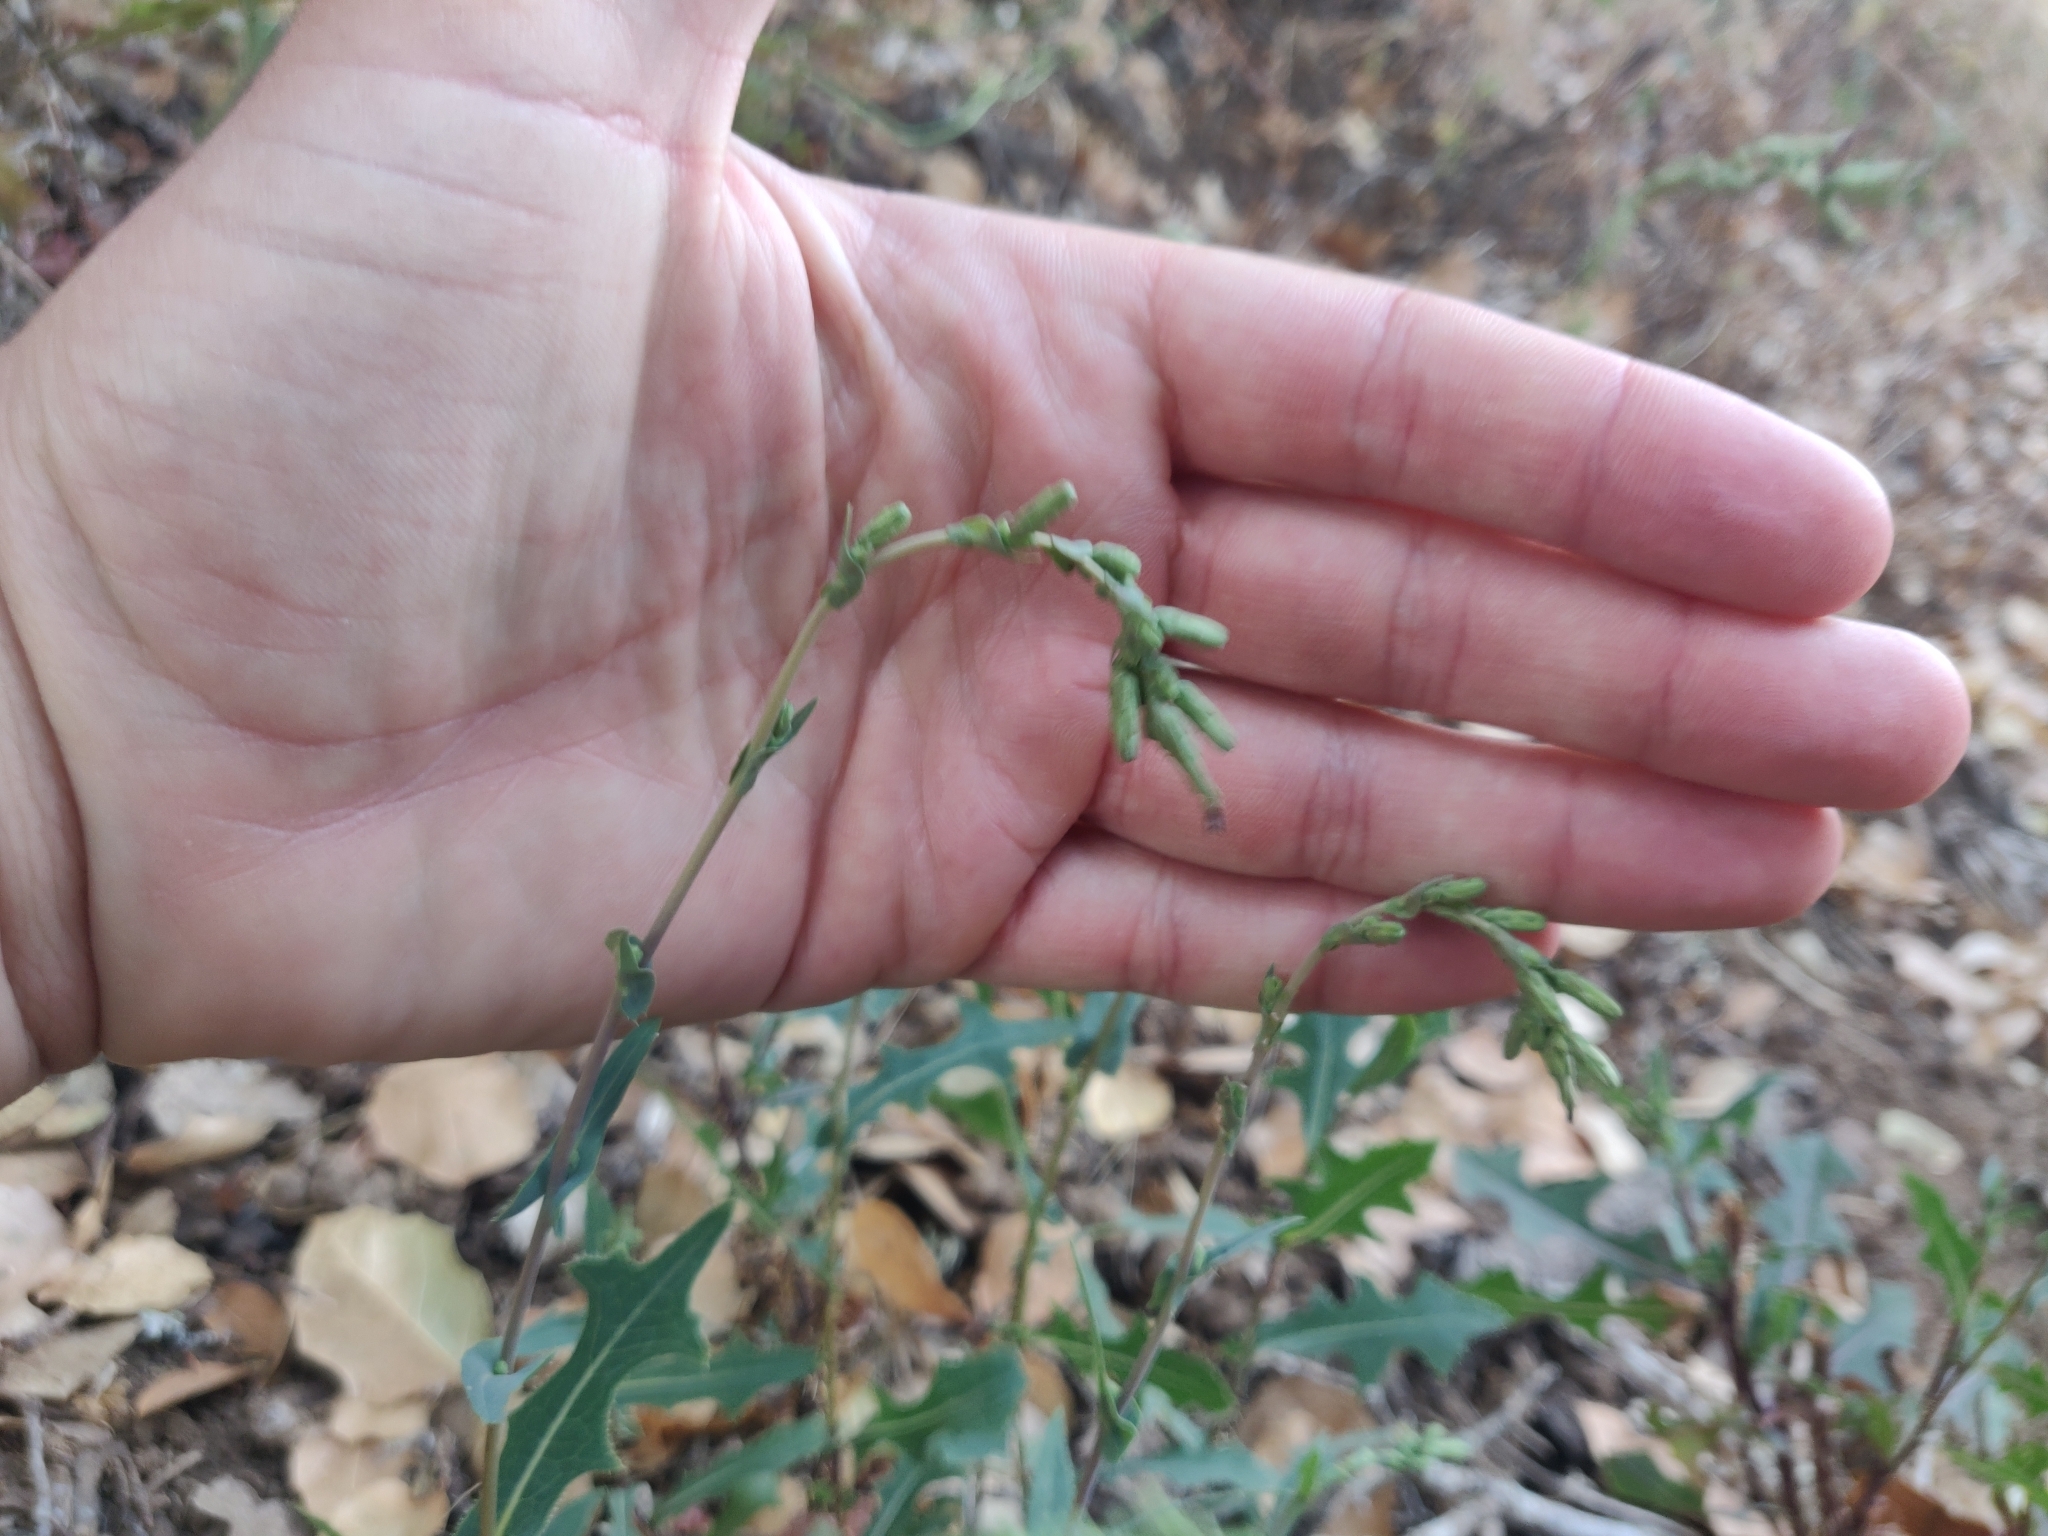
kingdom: Plantae
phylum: Tracheophyta
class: Magnoliopsida
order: Asterales
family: Asteraceae
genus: Lactuca
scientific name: Lactuca serriola
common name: Prickly lettuce
